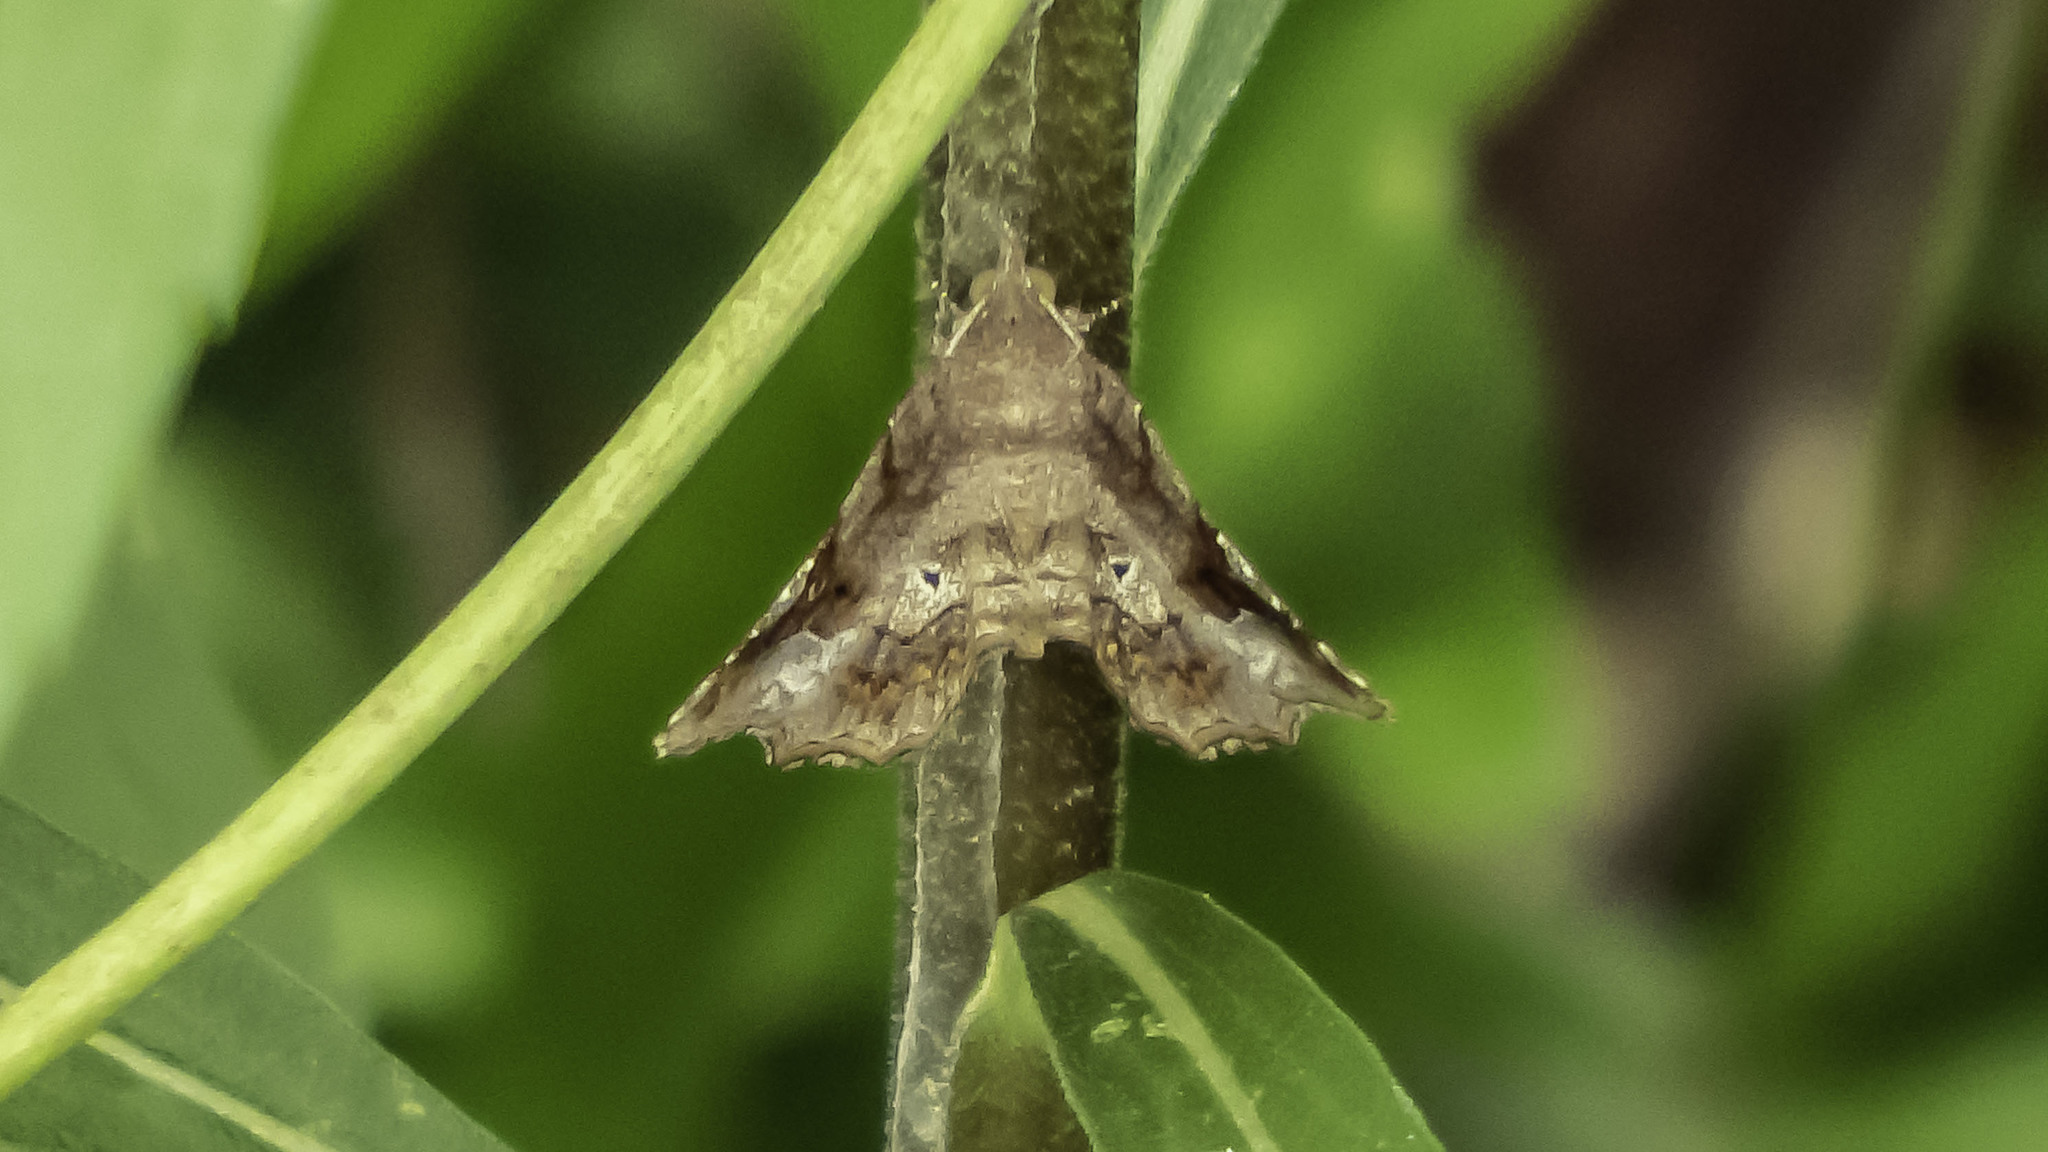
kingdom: Animalia
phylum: Arthropoda
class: Insecta
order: Lepidoptera
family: Erebidae
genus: Pangrapta
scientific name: Pangrapta decoralis
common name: Decorated owlet
